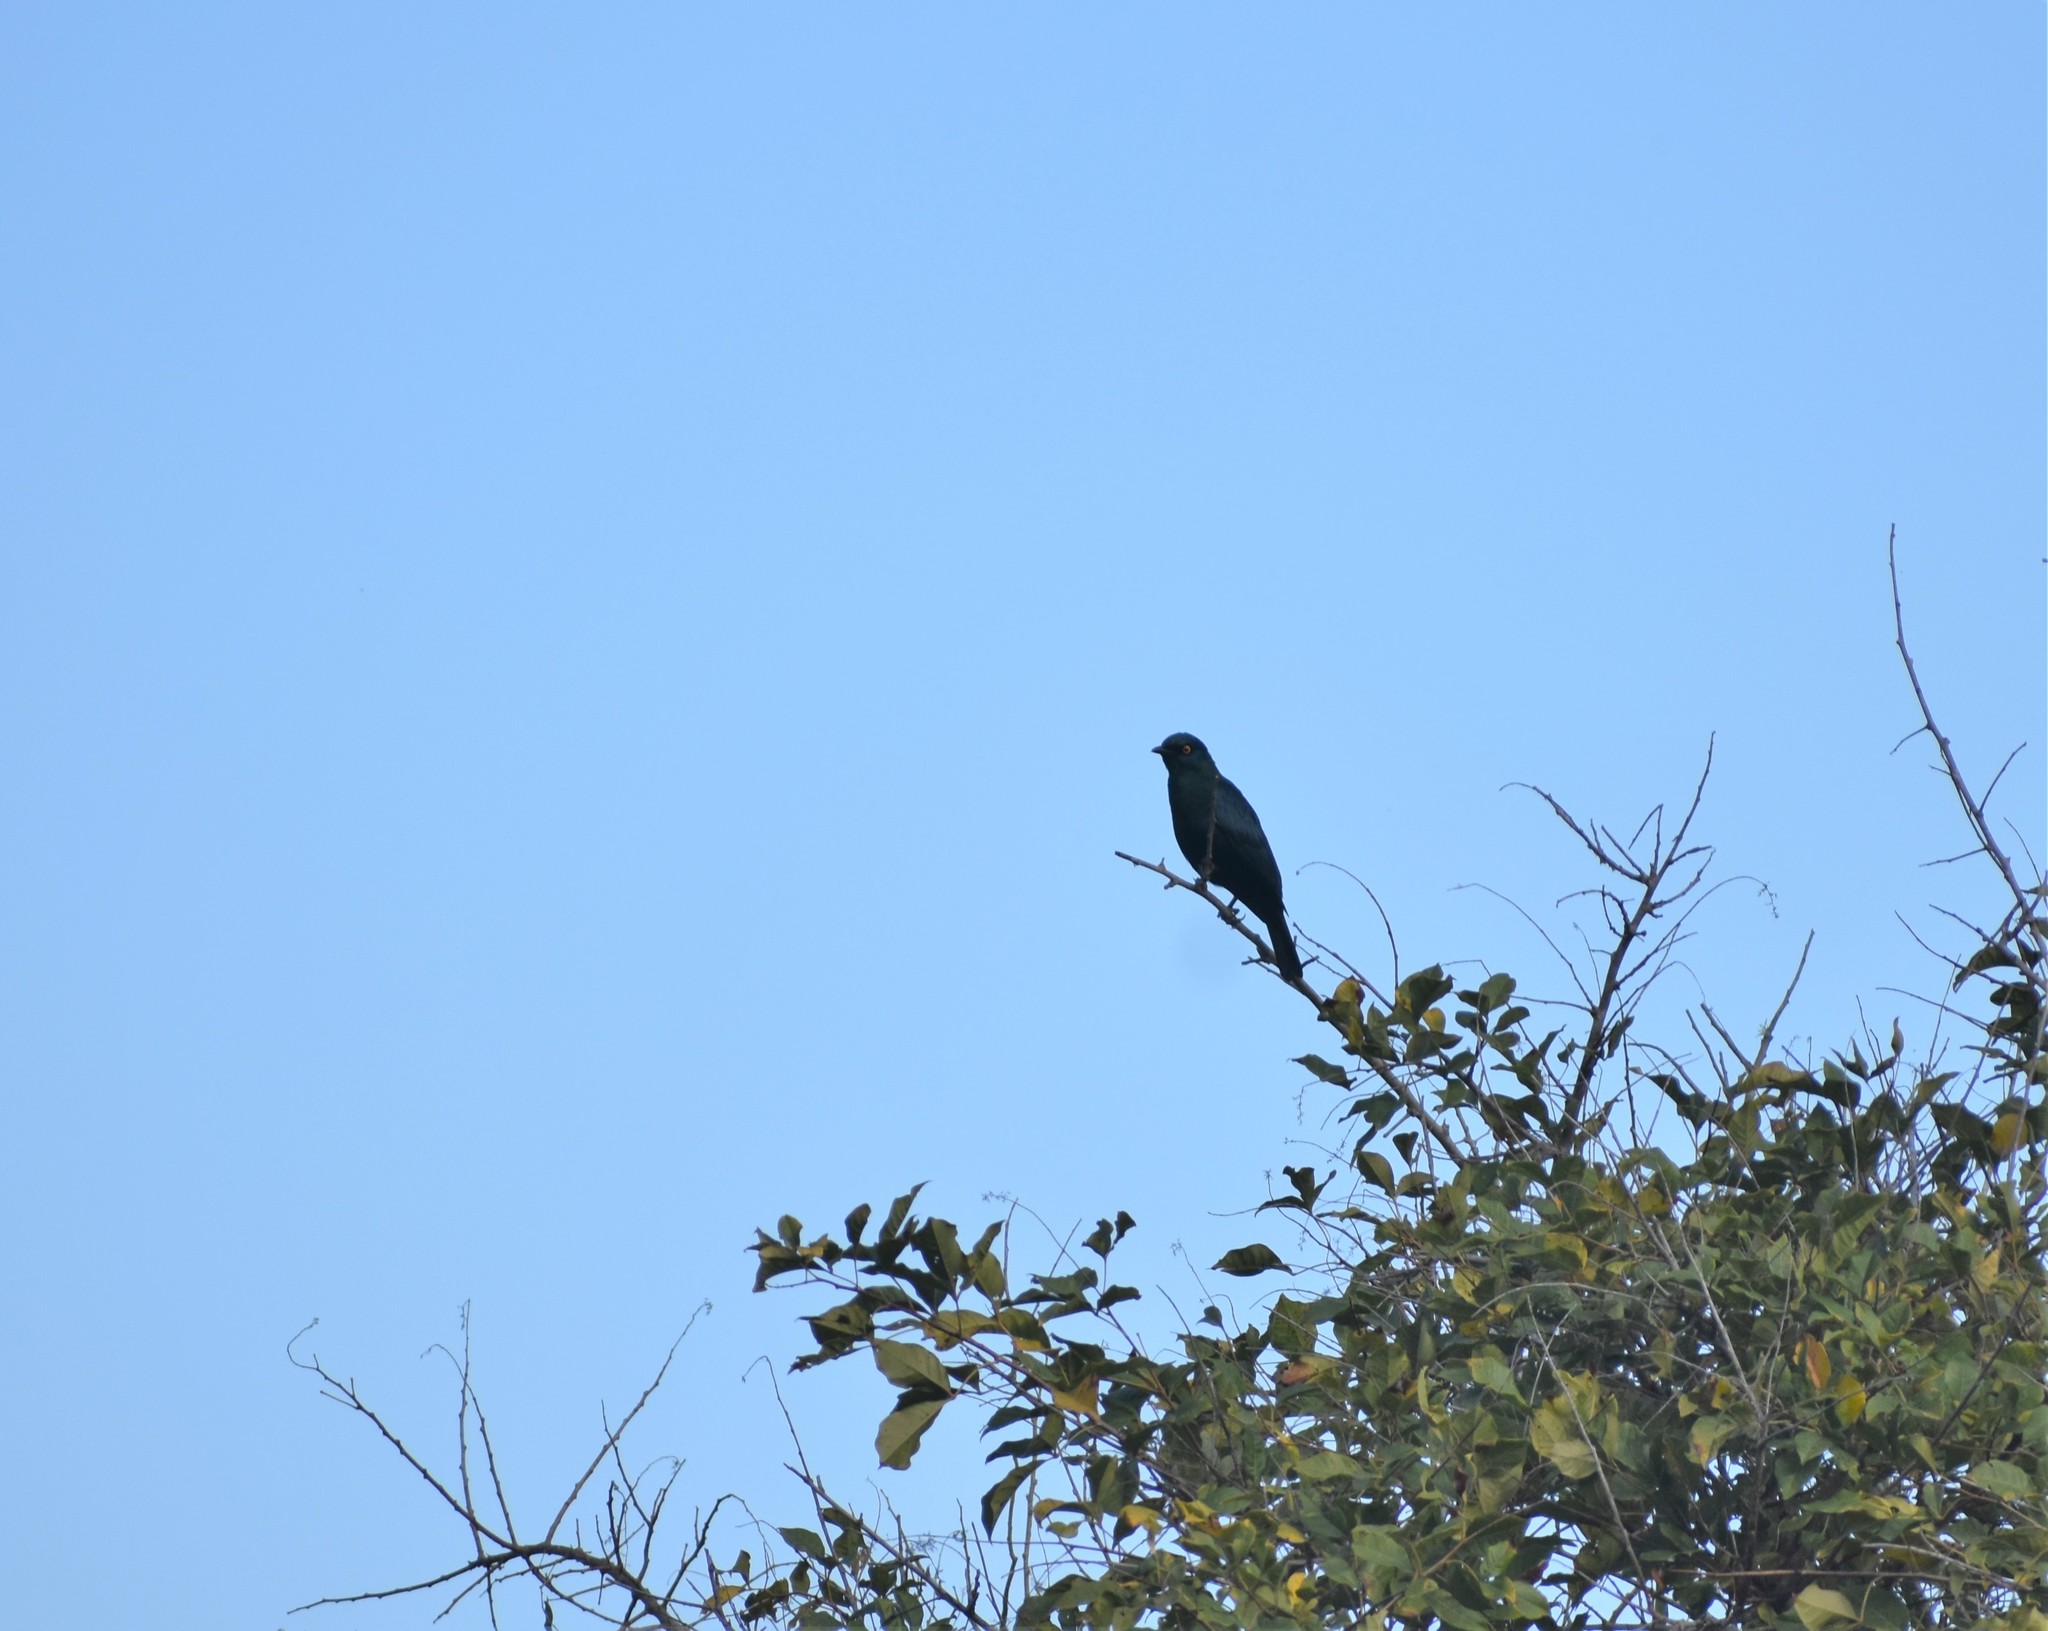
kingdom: Animalia
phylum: Chordata
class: Aves
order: Passeriformes
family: Sturnidae
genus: Notopholia
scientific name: Notopholia corrusca
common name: Black-bellied starling
